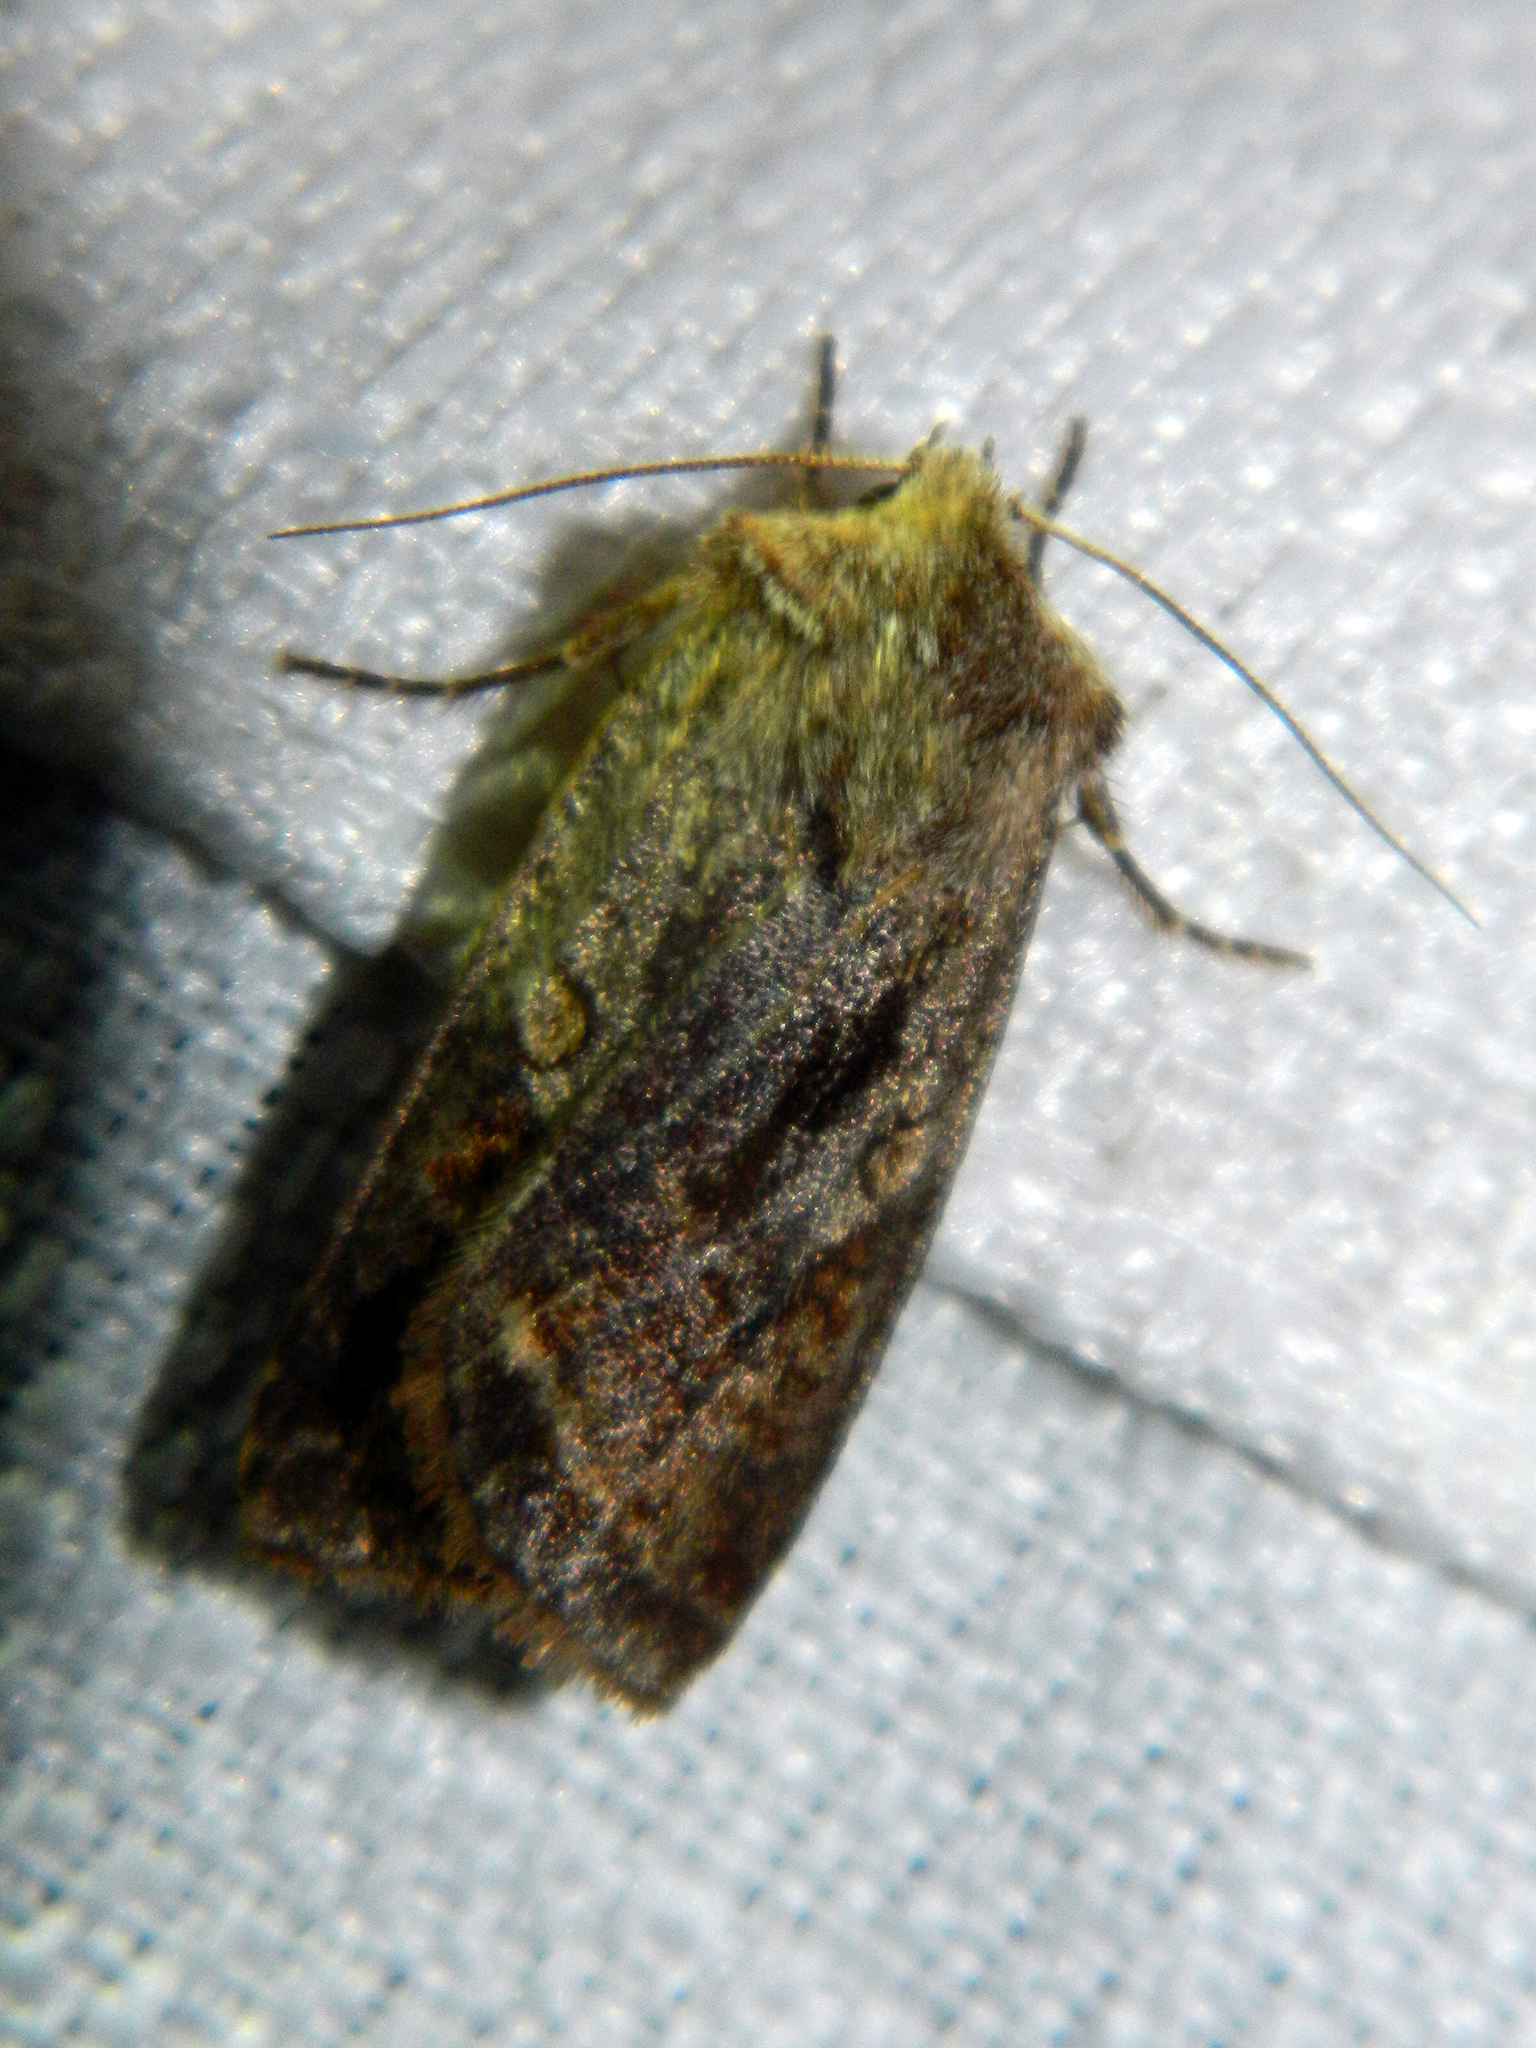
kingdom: Animalia
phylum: Arthropoda
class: Insecta
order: Lepidoptera
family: Noctuidae
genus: Cerastis
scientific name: Cerastis salicarum
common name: Willow dart
